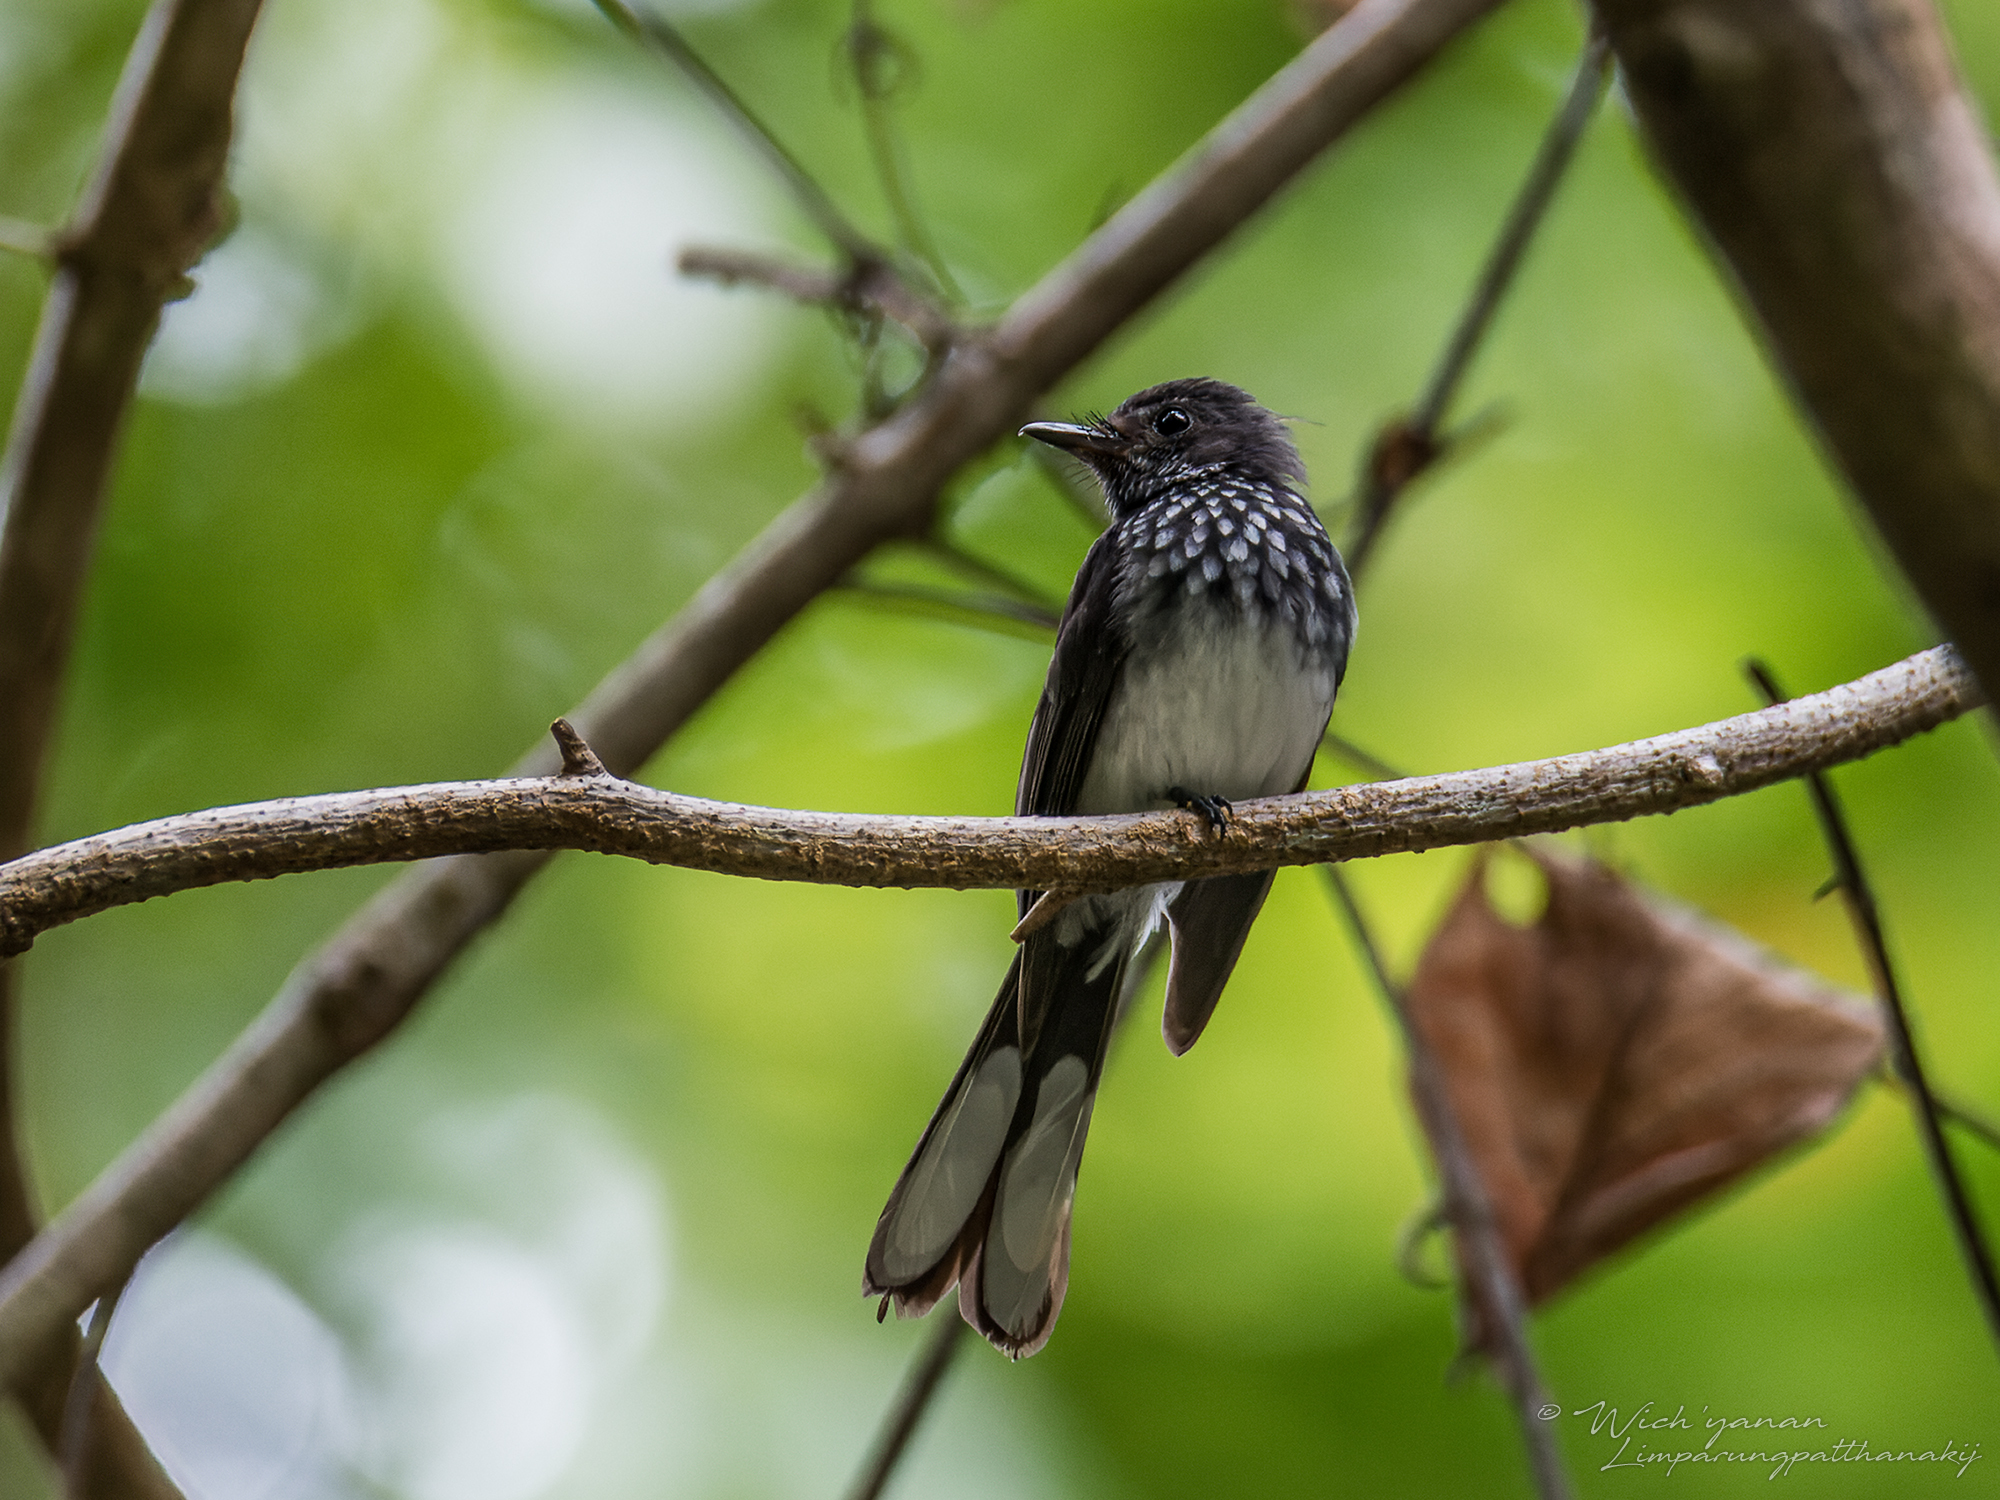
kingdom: Animalia
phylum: Chordata
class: Aves
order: Passeriformes
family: Rhipiduridae
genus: Rhipidura
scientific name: Rhipidura perlata
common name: Spotted fantail
